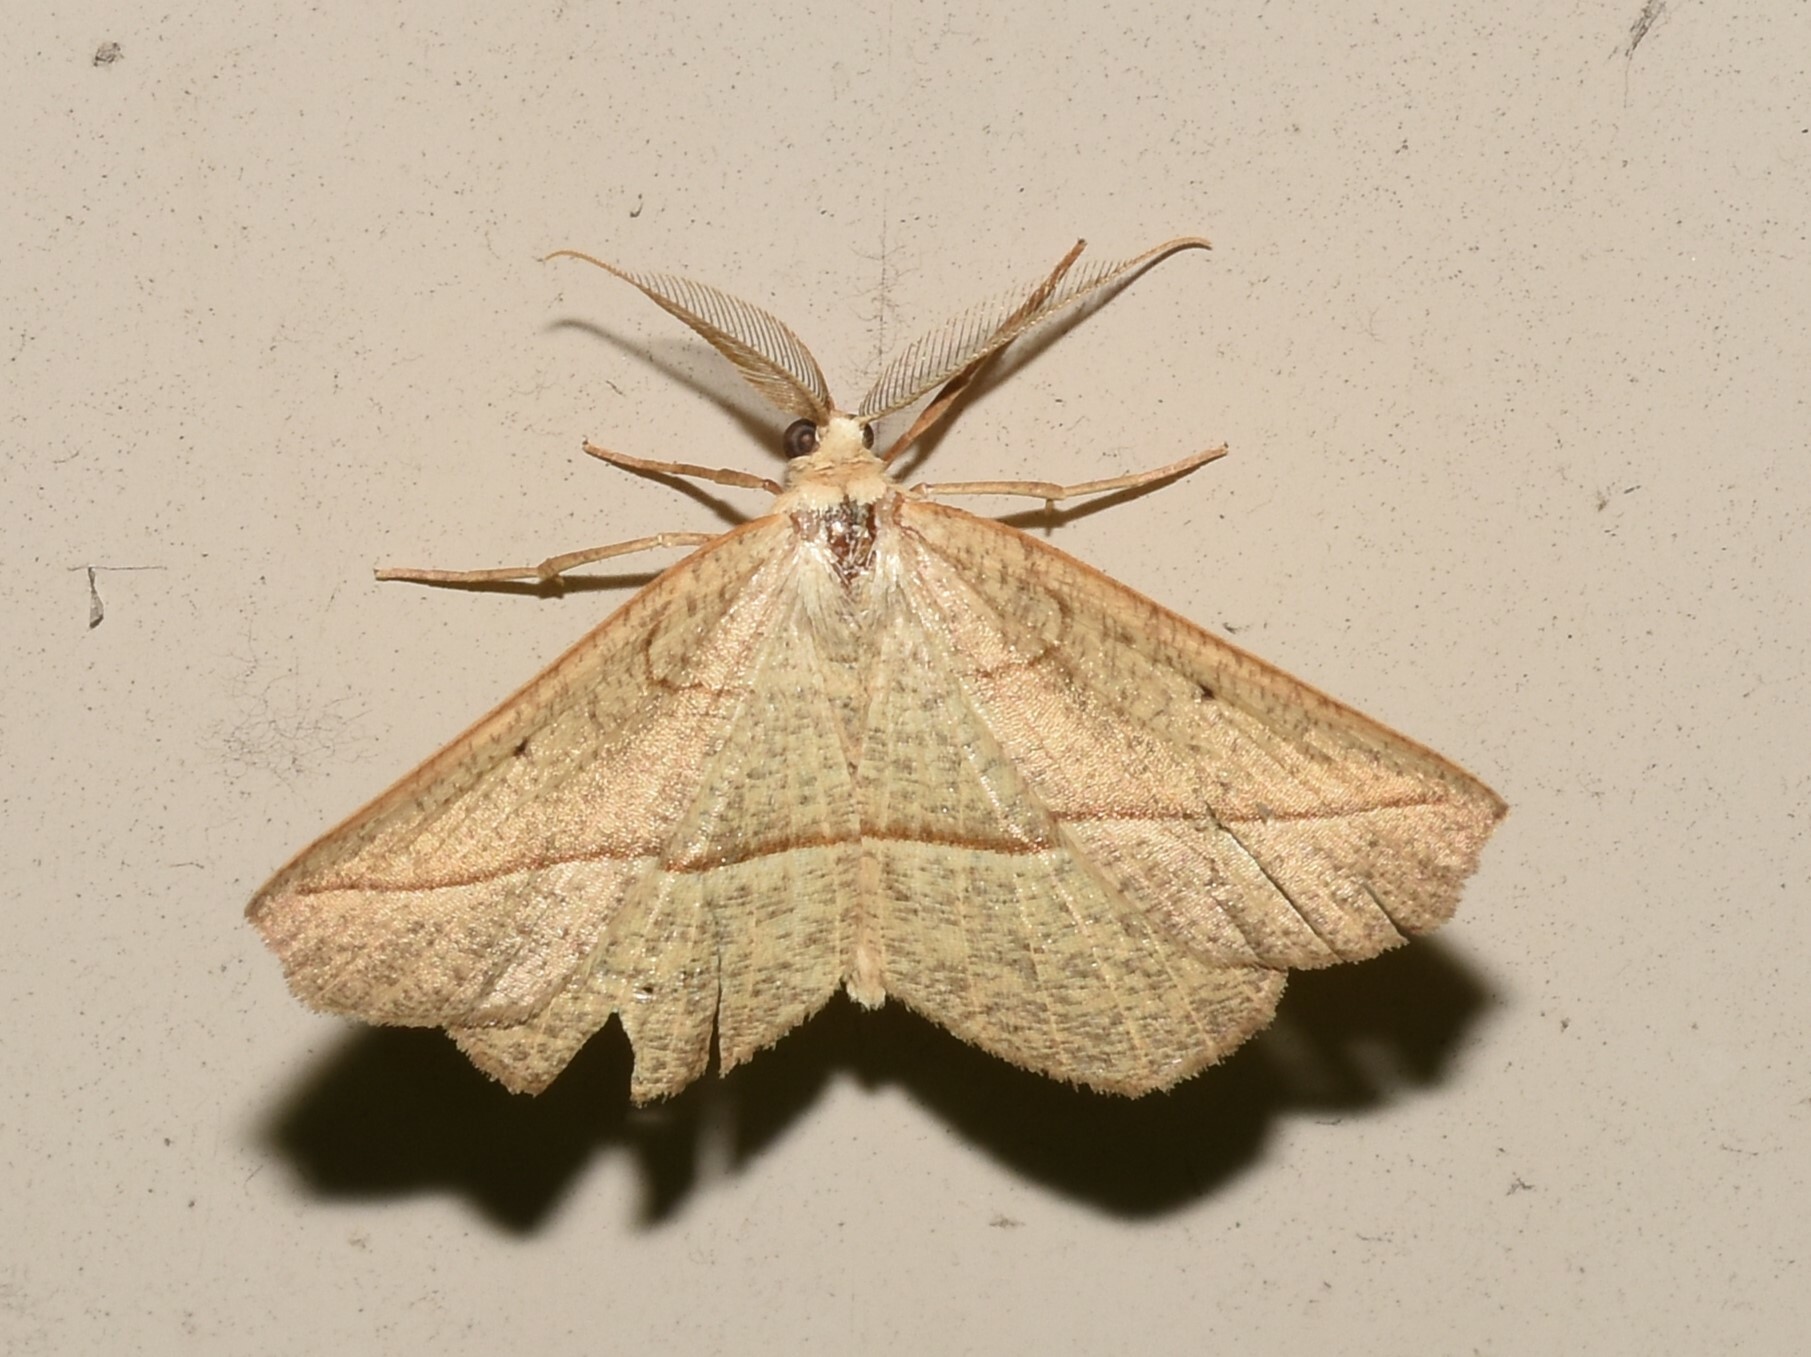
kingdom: Animalia
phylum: Arthropoda
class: Insecta
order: Lepidoptera
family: Geometridae
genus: Eusarca
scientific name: Eusarca confusaria
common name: Confused eusarca
